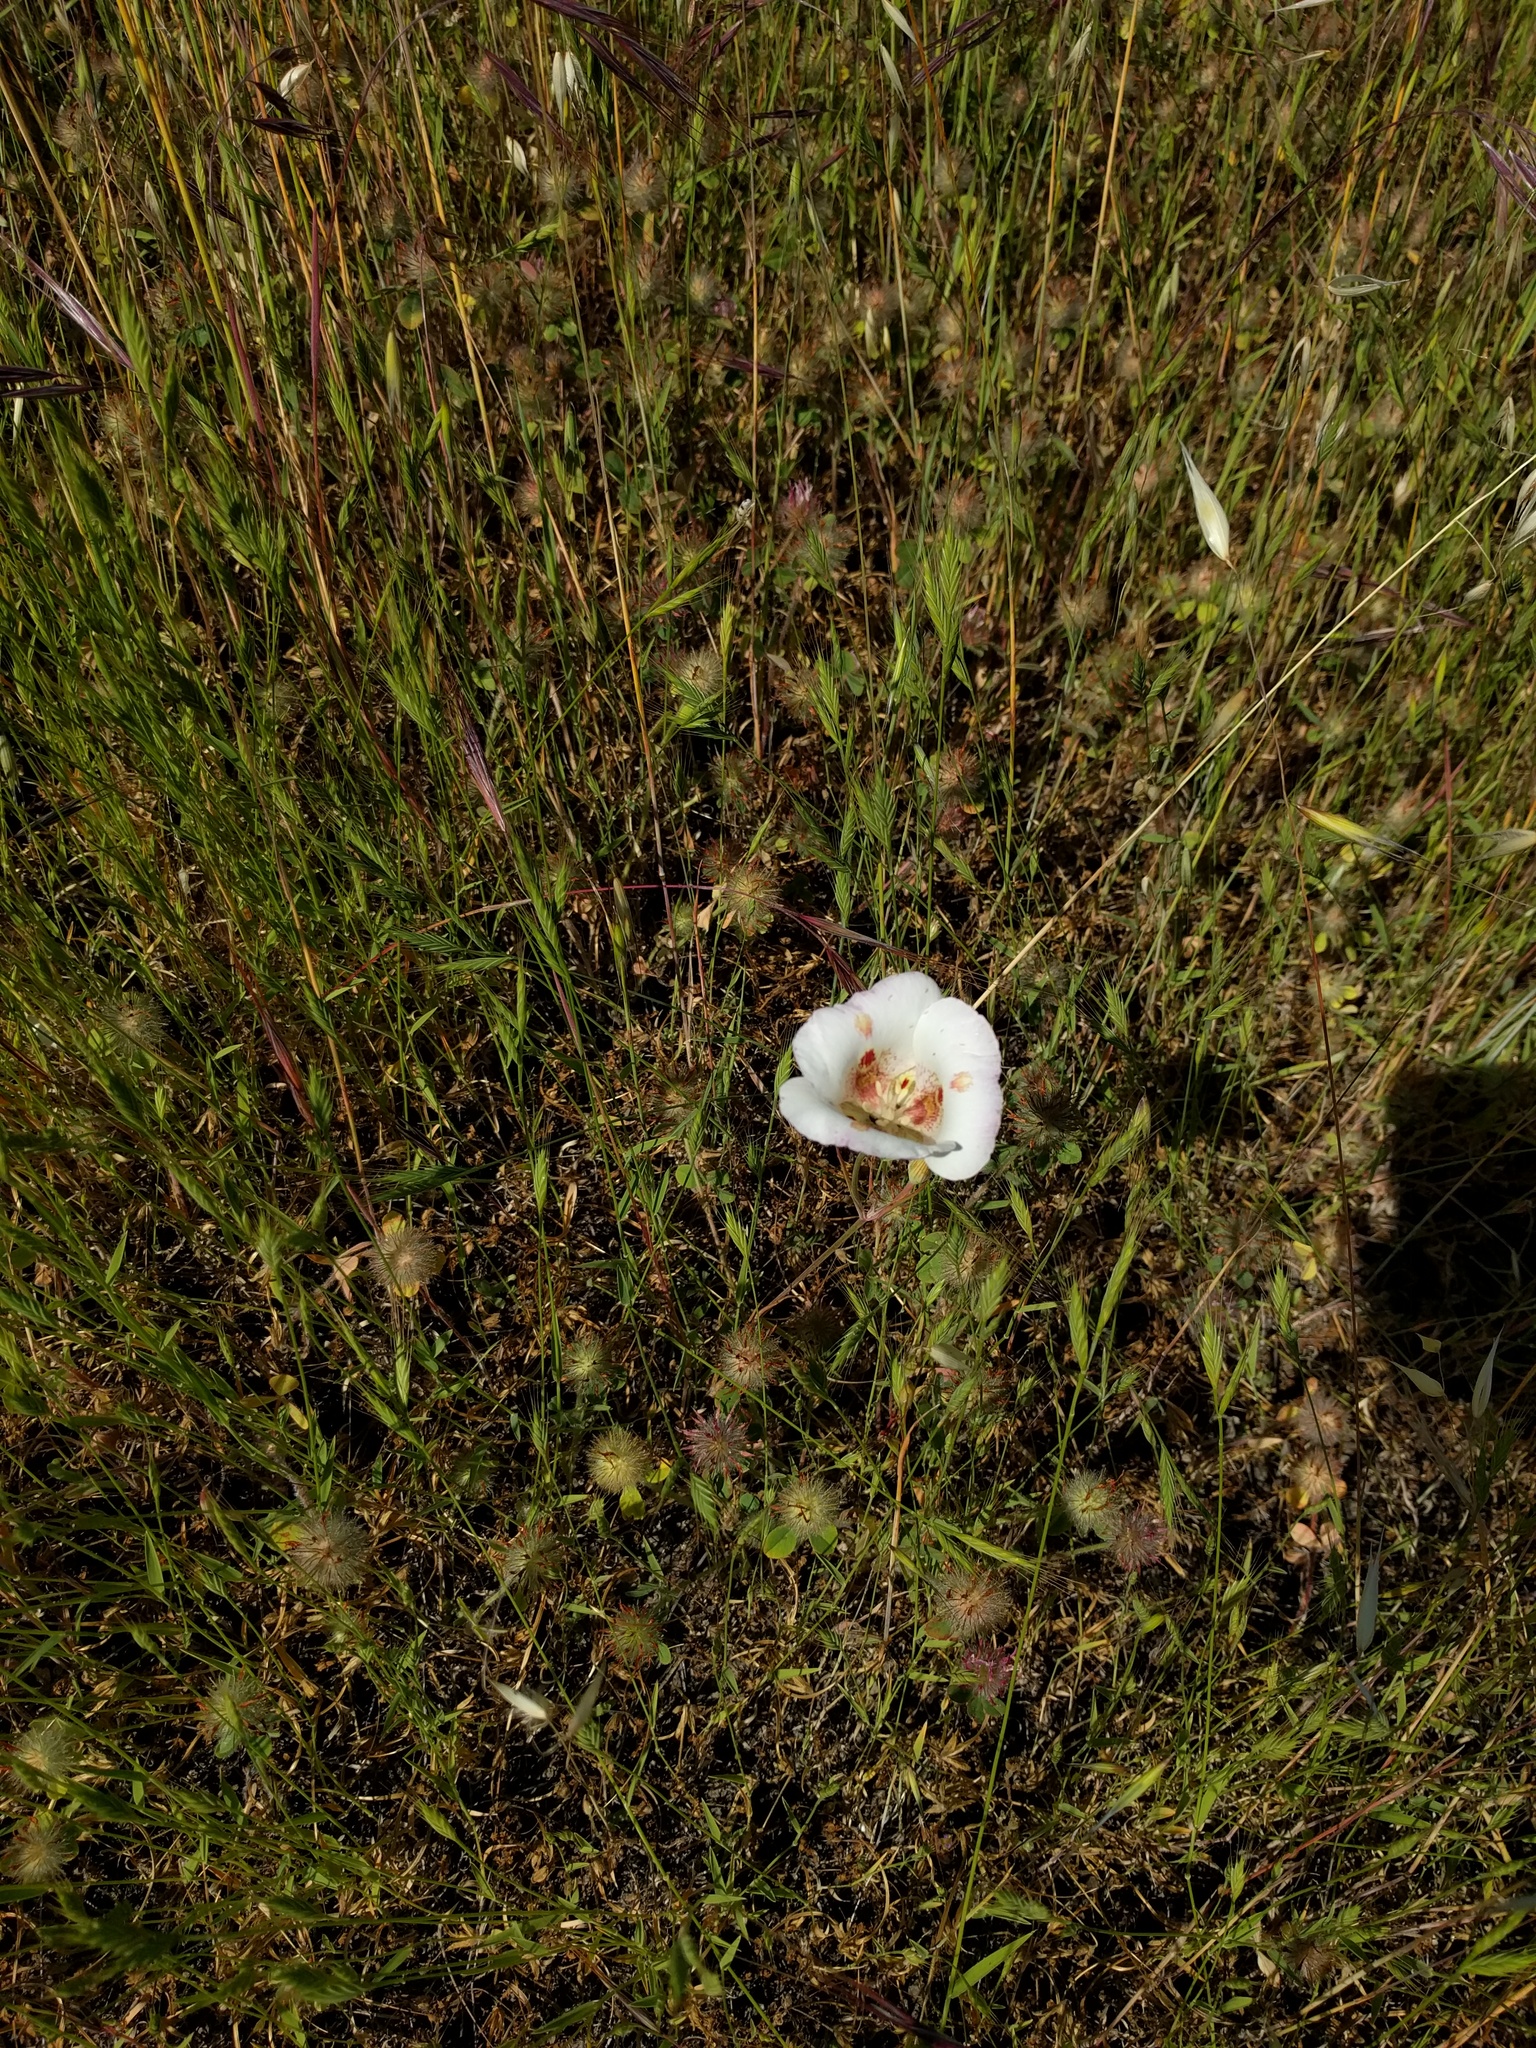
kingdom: Plantae
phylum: Tracheophyta
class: Liliopsida
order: Liliales
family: Liliaceae
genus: Calochortus
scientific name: Calochortus venustus
